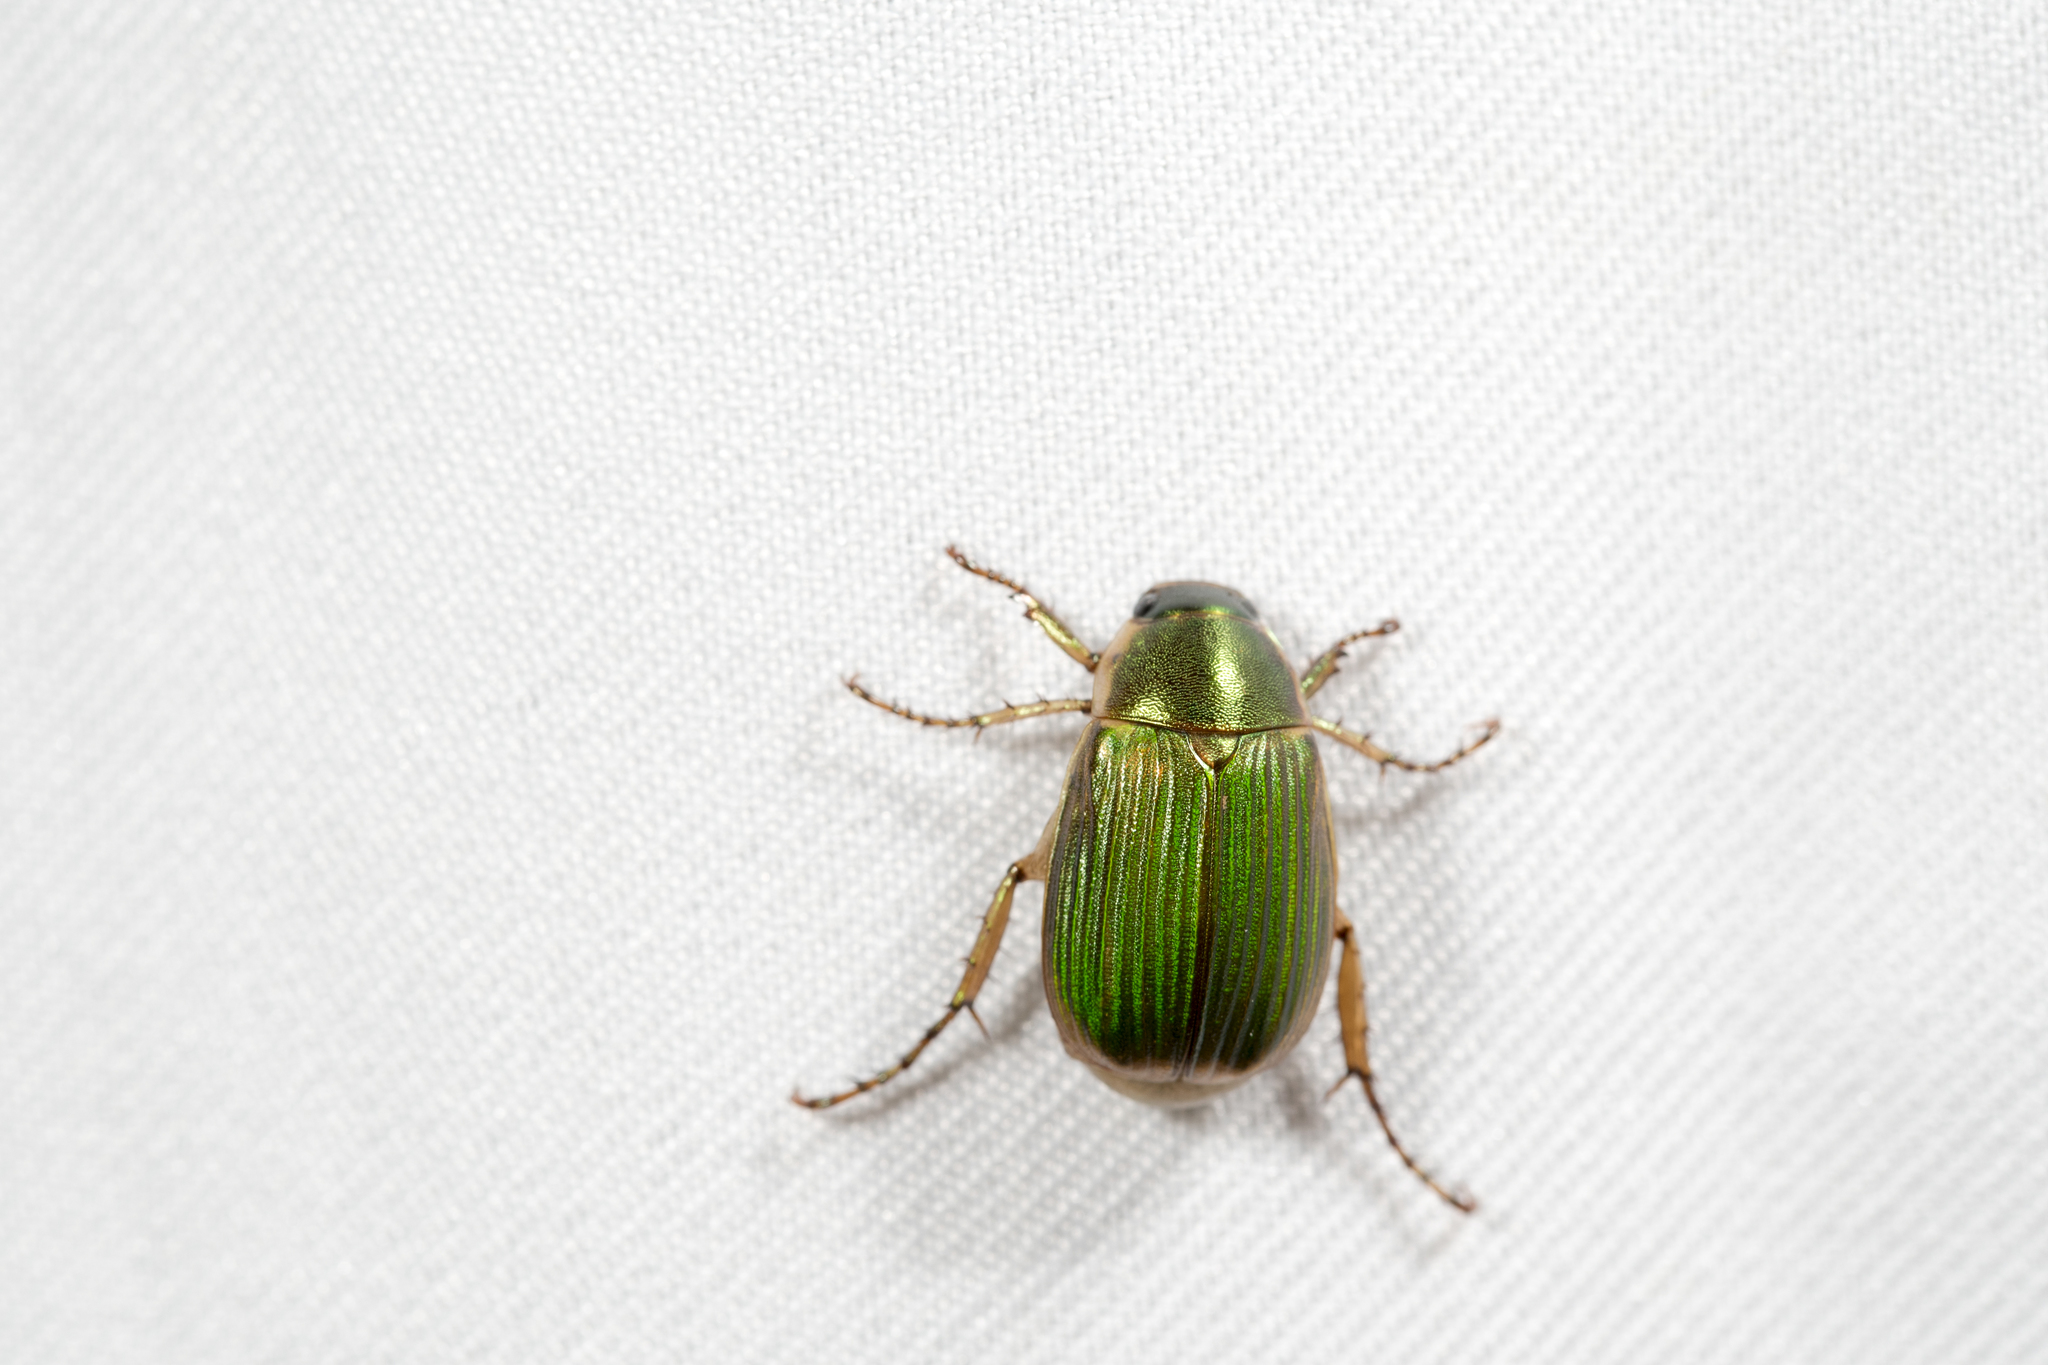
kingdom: Animalia
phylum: Arthropoda
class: Insecta
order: Coleoptera
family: Scarabaeidae
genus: Anomala
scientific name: Anomala aulacoides
